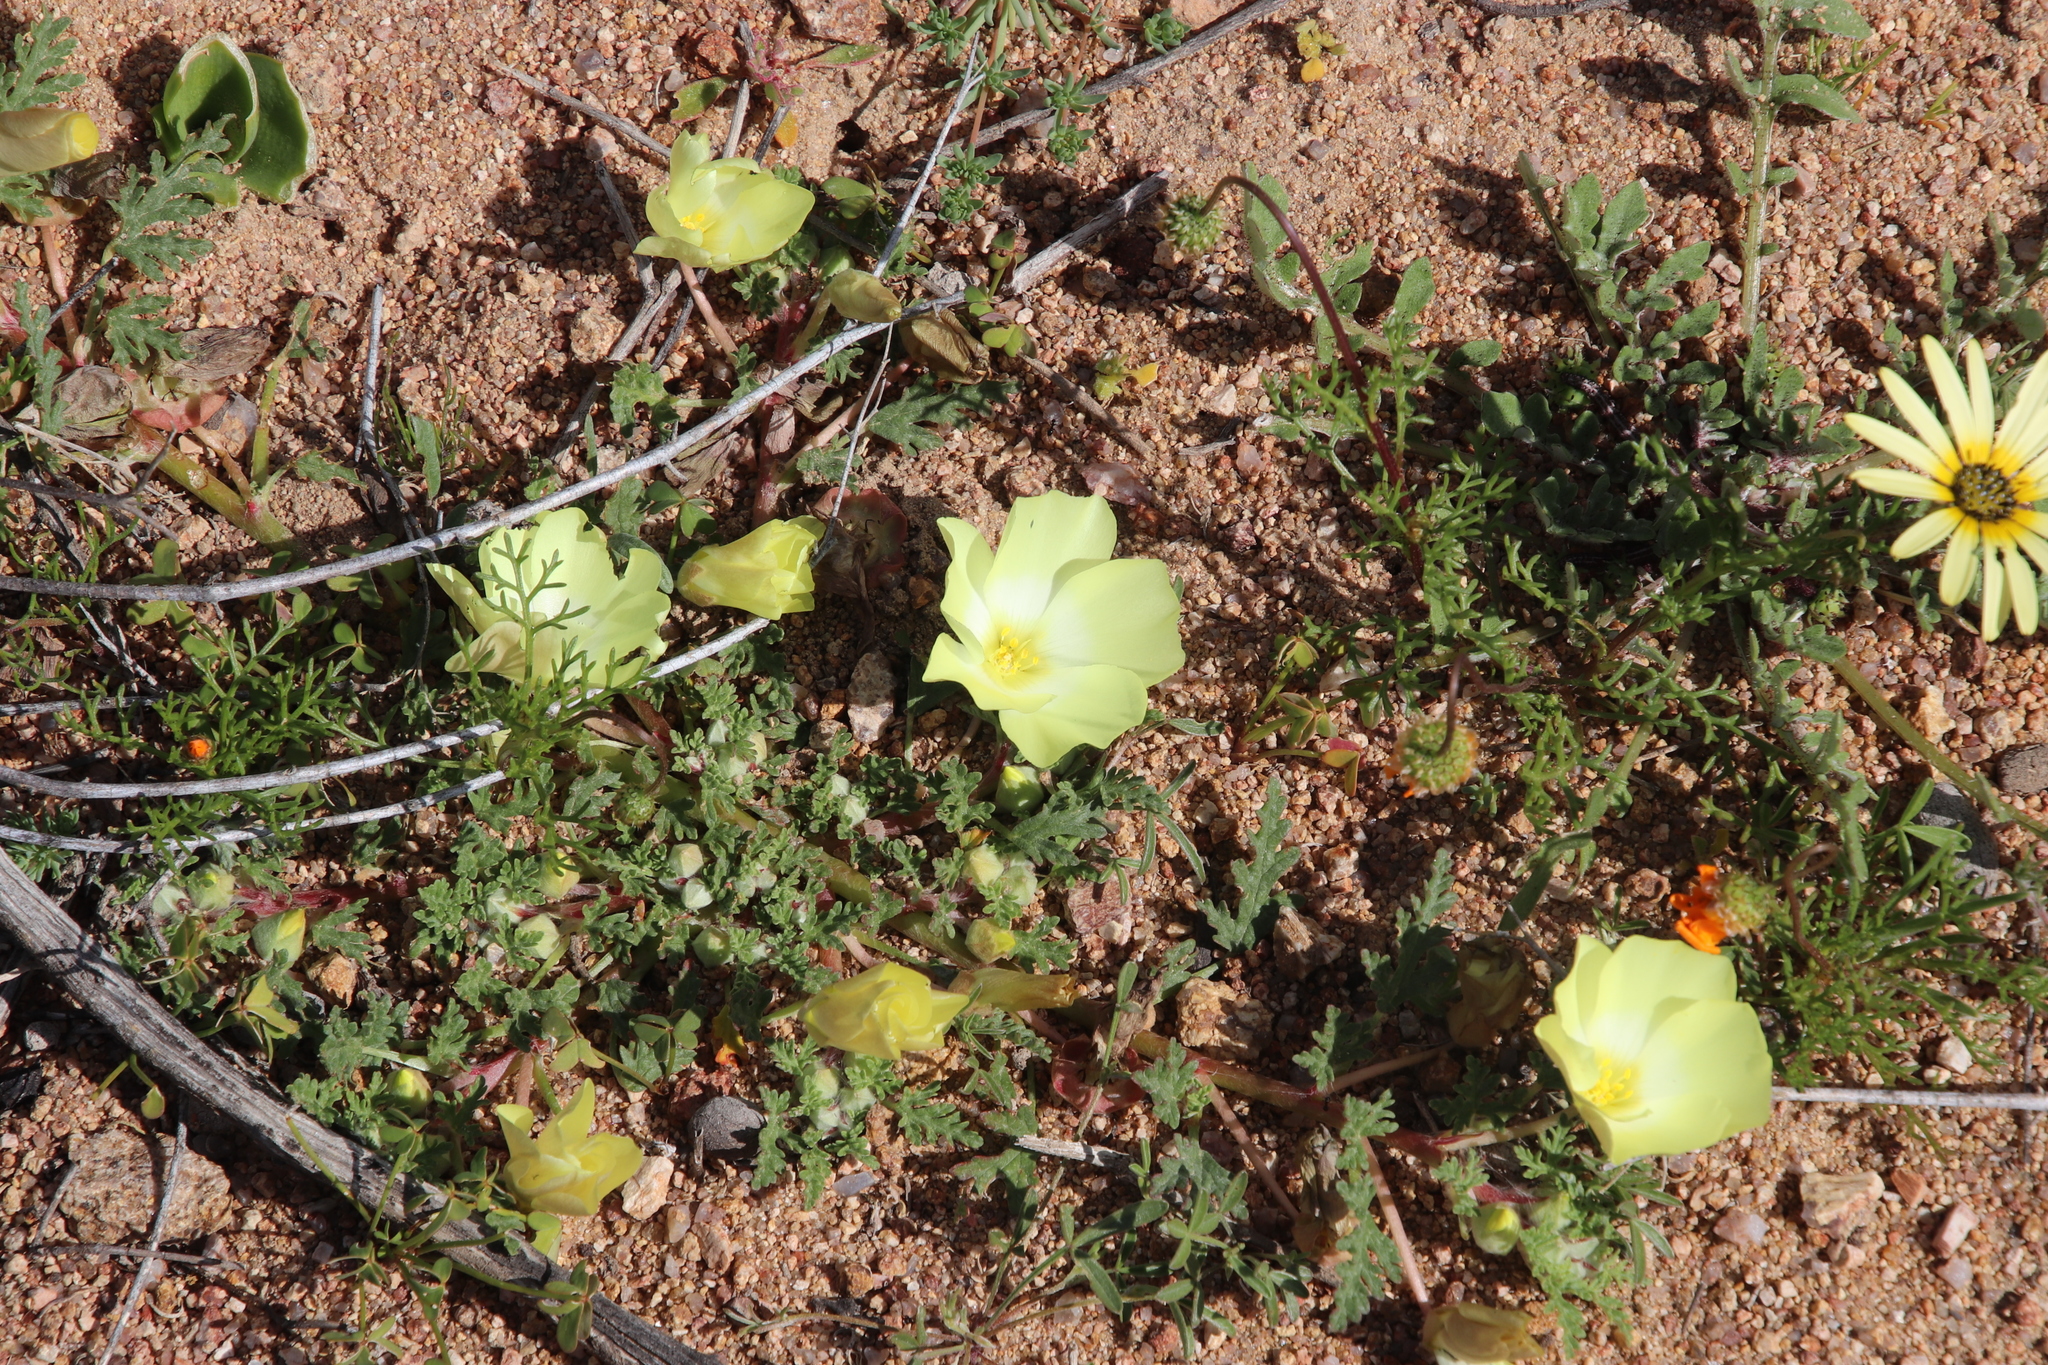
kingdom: Plantae
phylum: Tracheophyta
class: Magnoliopsida
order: Malvales
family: Neuradaceae
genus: Grielum
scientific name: Grielum humifusum
